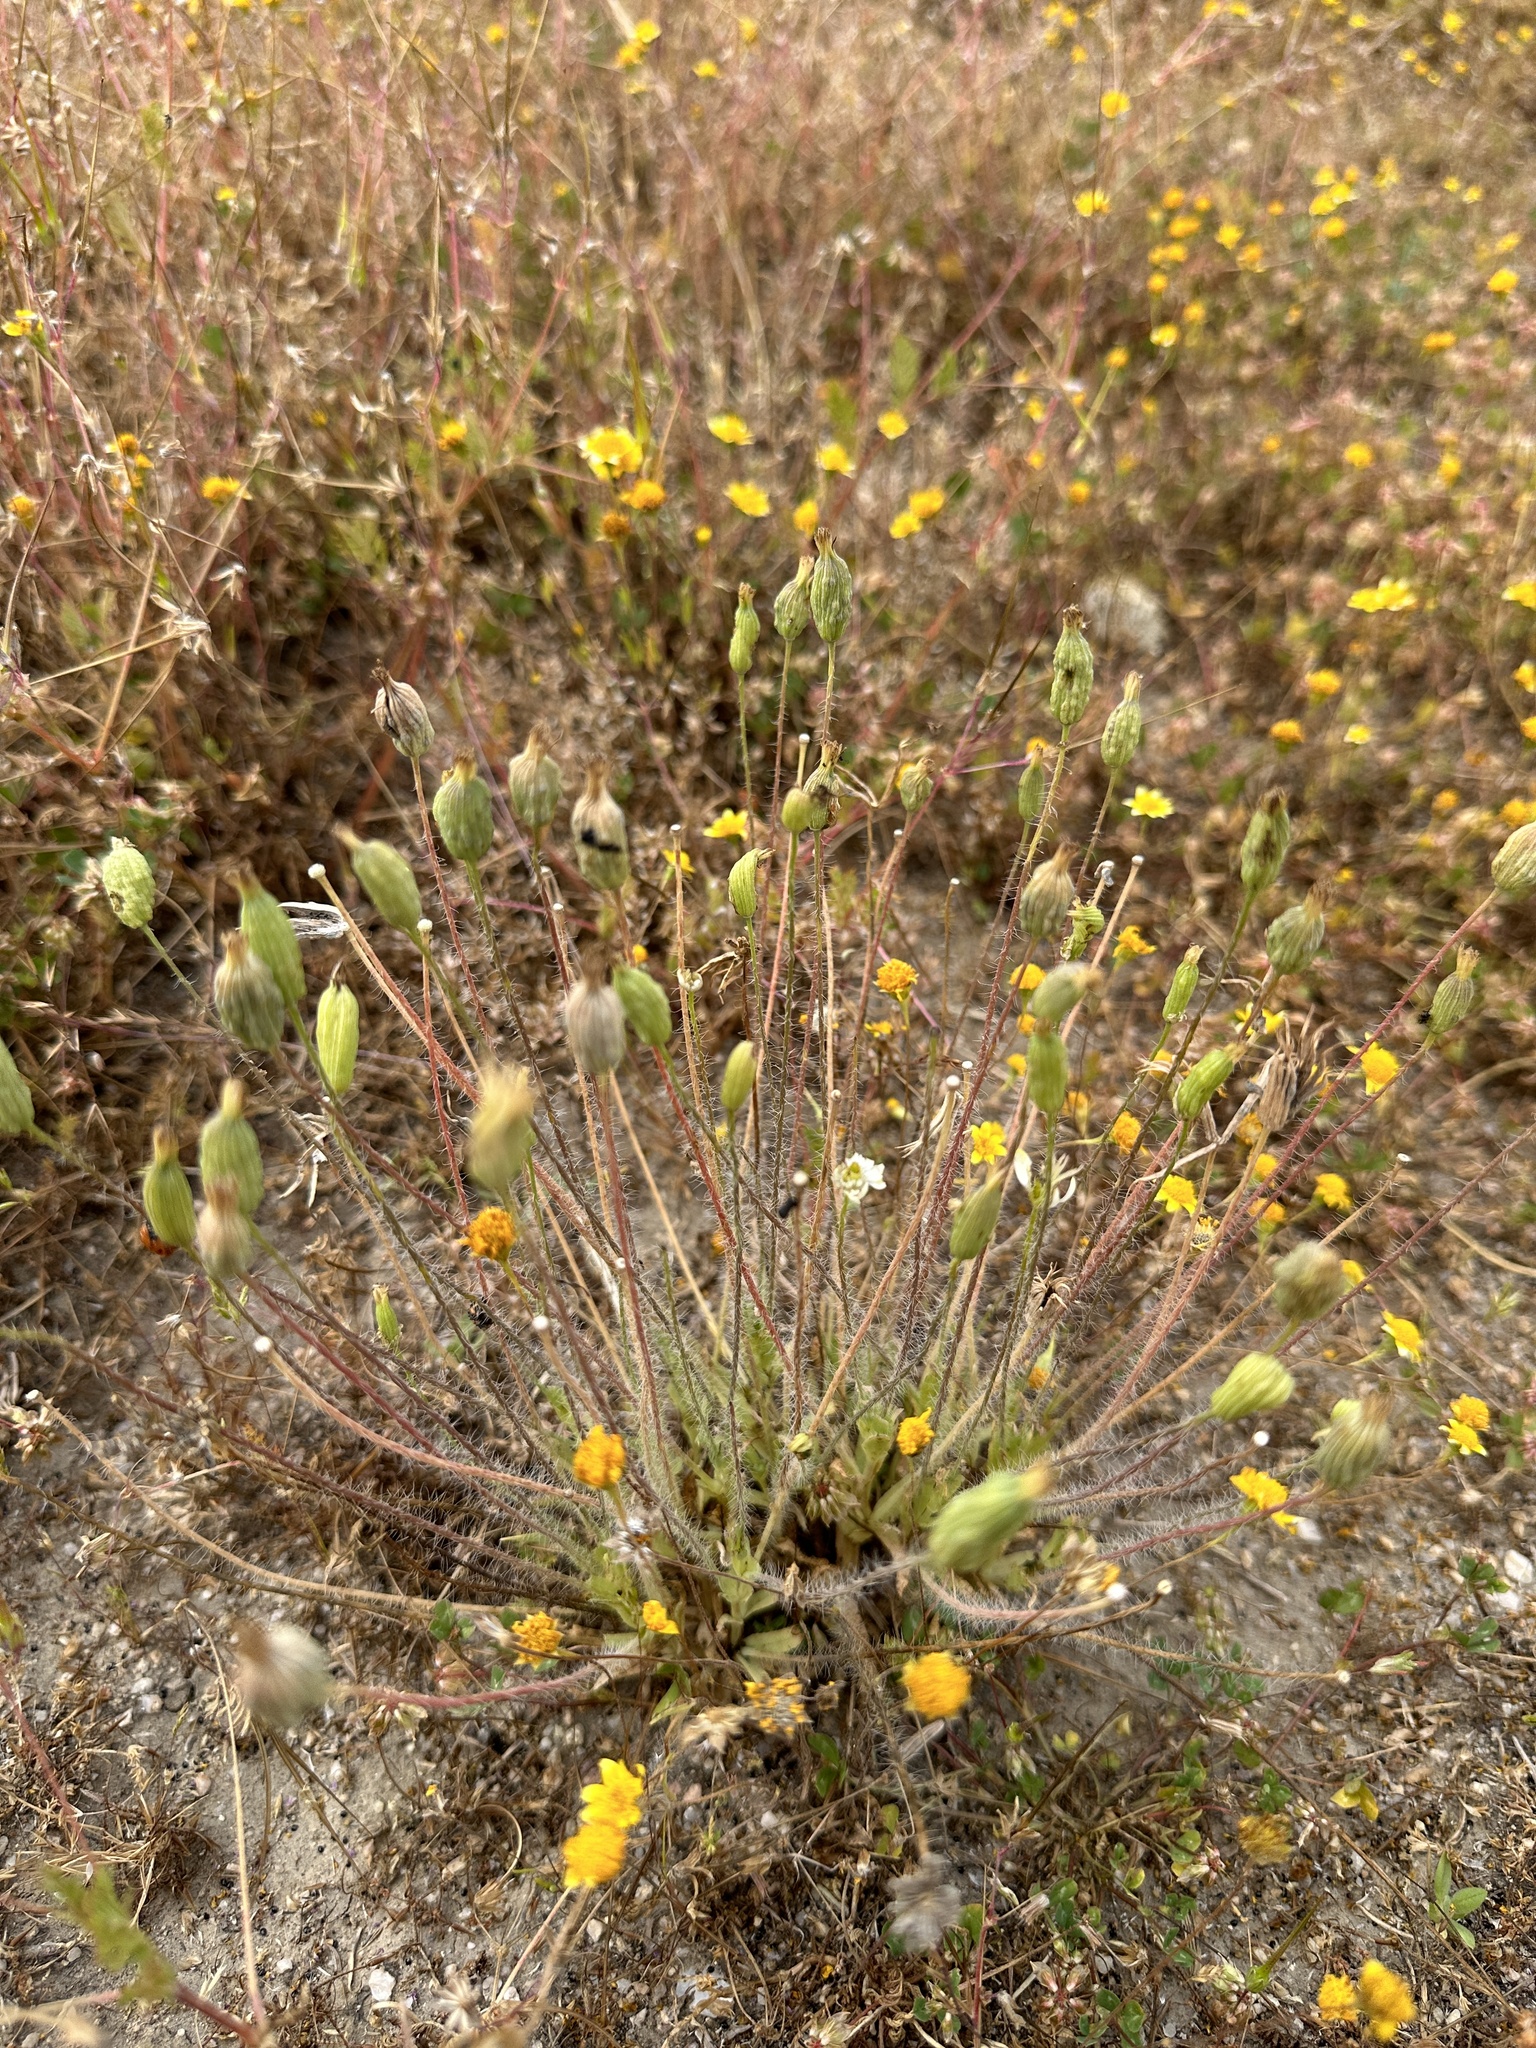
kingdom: Plantae
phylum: Tracheophyta
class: Magnoliopsida
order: Ranunculales
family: Papaveraceae
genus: Platystemon
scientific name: Platystemon californicus
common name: Cream-cups
